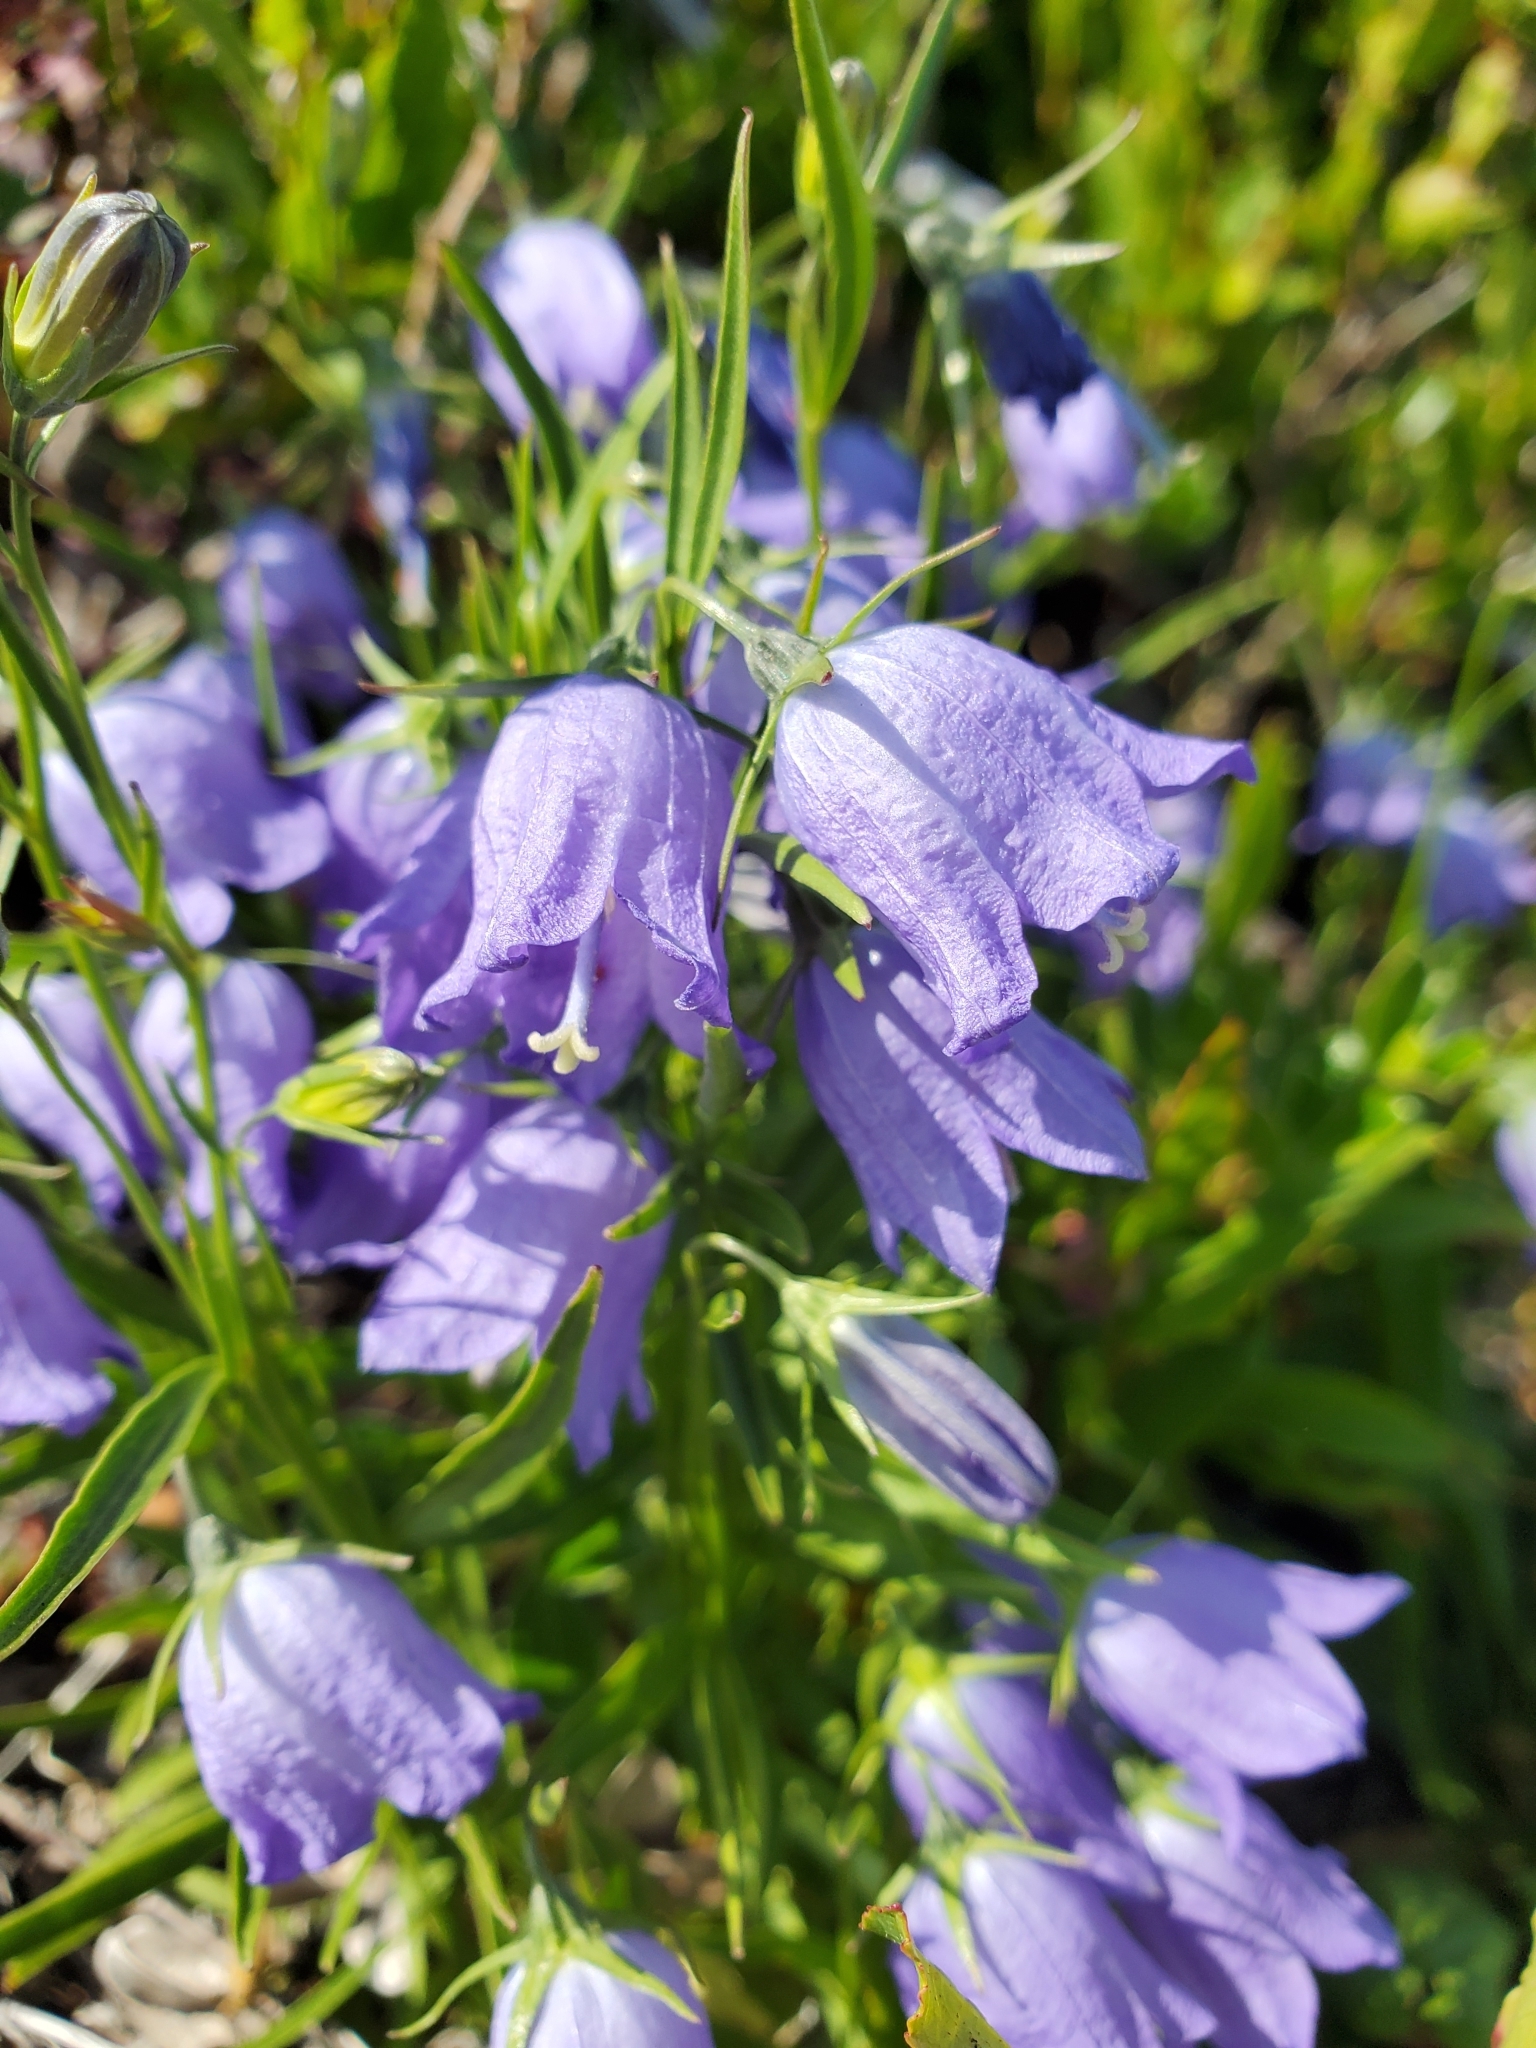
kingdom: Plantae
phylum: Tracheophyta
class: Magnoliopsida
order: Asterales
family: Campanulaceae
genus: Campanula
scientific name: Campanula alaskana
